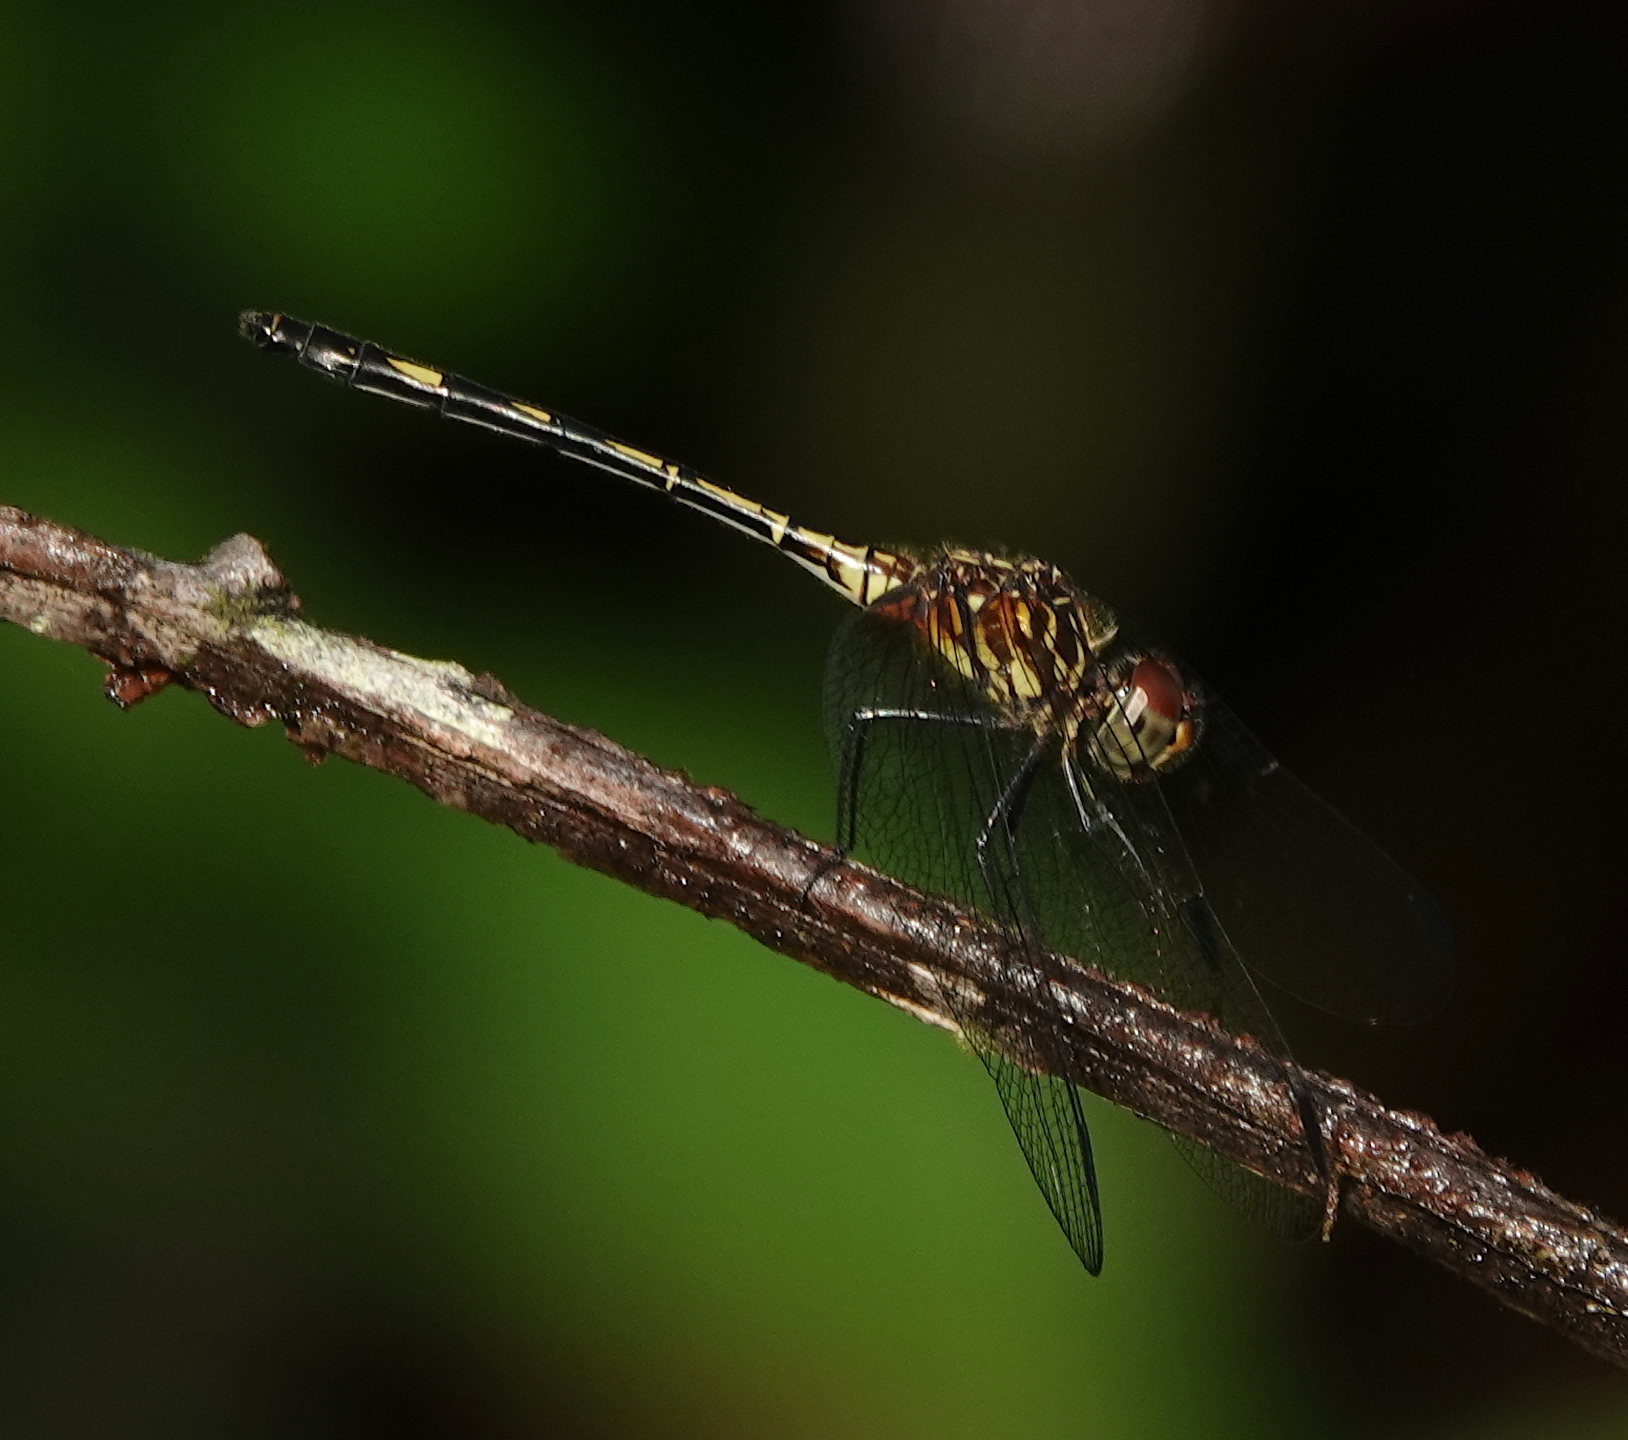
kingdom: Animalia
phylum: Arthropoda
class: Insecta
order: Odonata
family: Libellulidae
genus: Dythemis
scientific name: Dythemis sterilis
